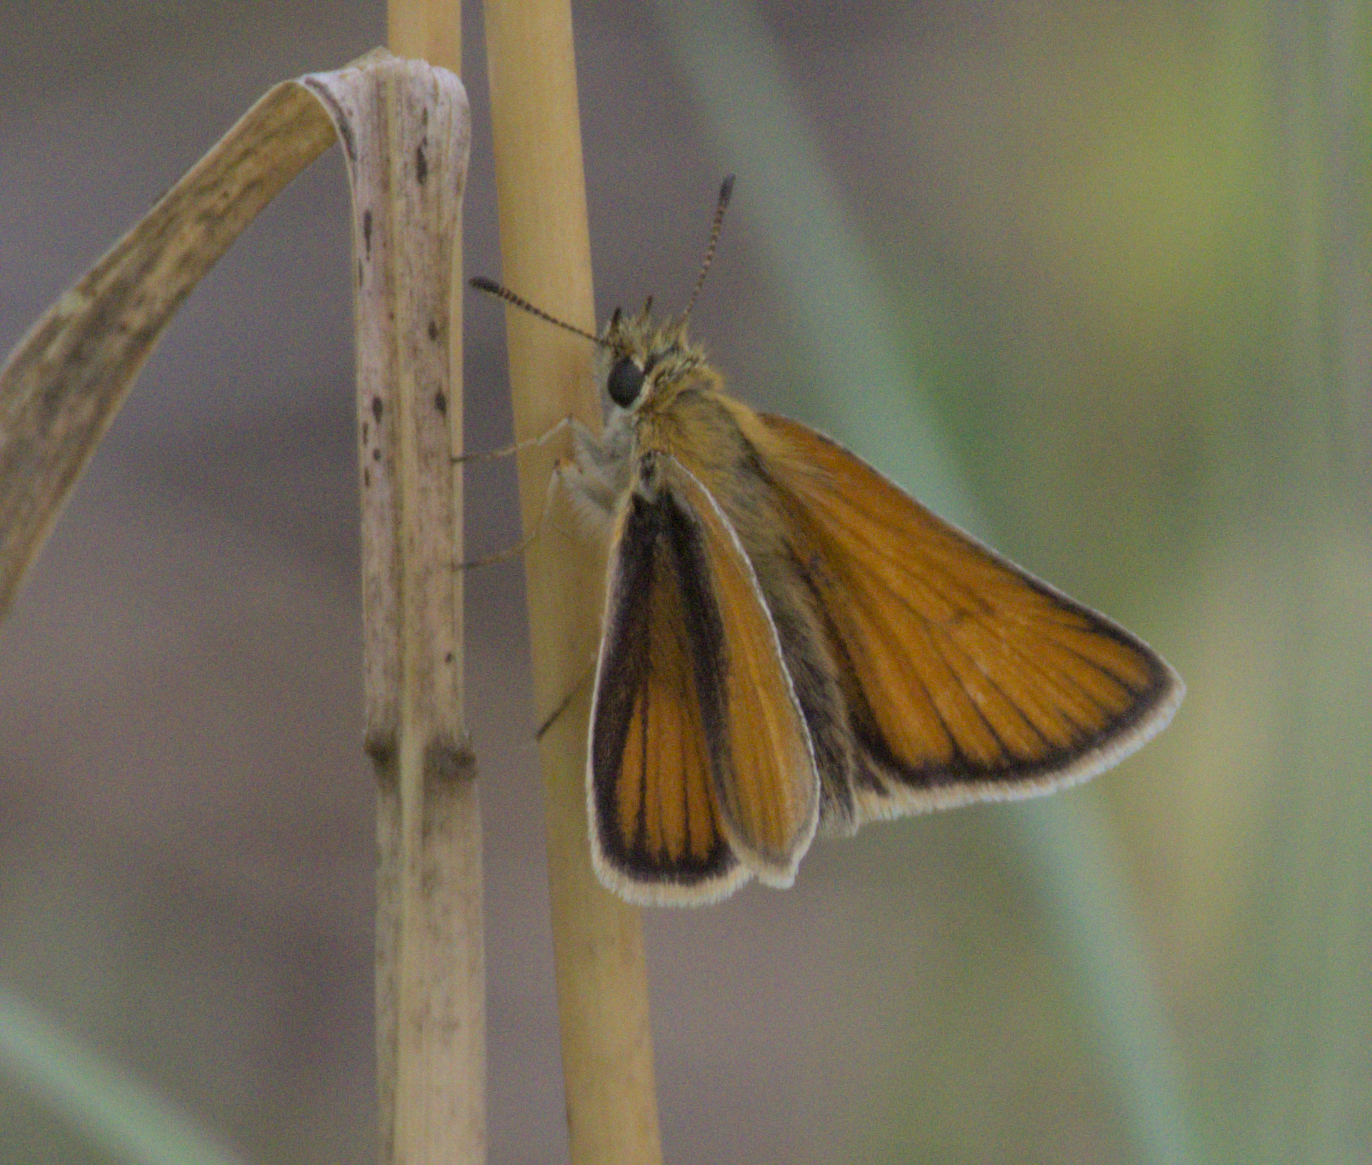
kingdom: Animalia
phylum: Arthropoda
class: Insecta
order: Lepidoptera
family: Hesperiidae
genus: Thymelicus
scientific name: Thymelicus lineola
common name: Essex skipper
